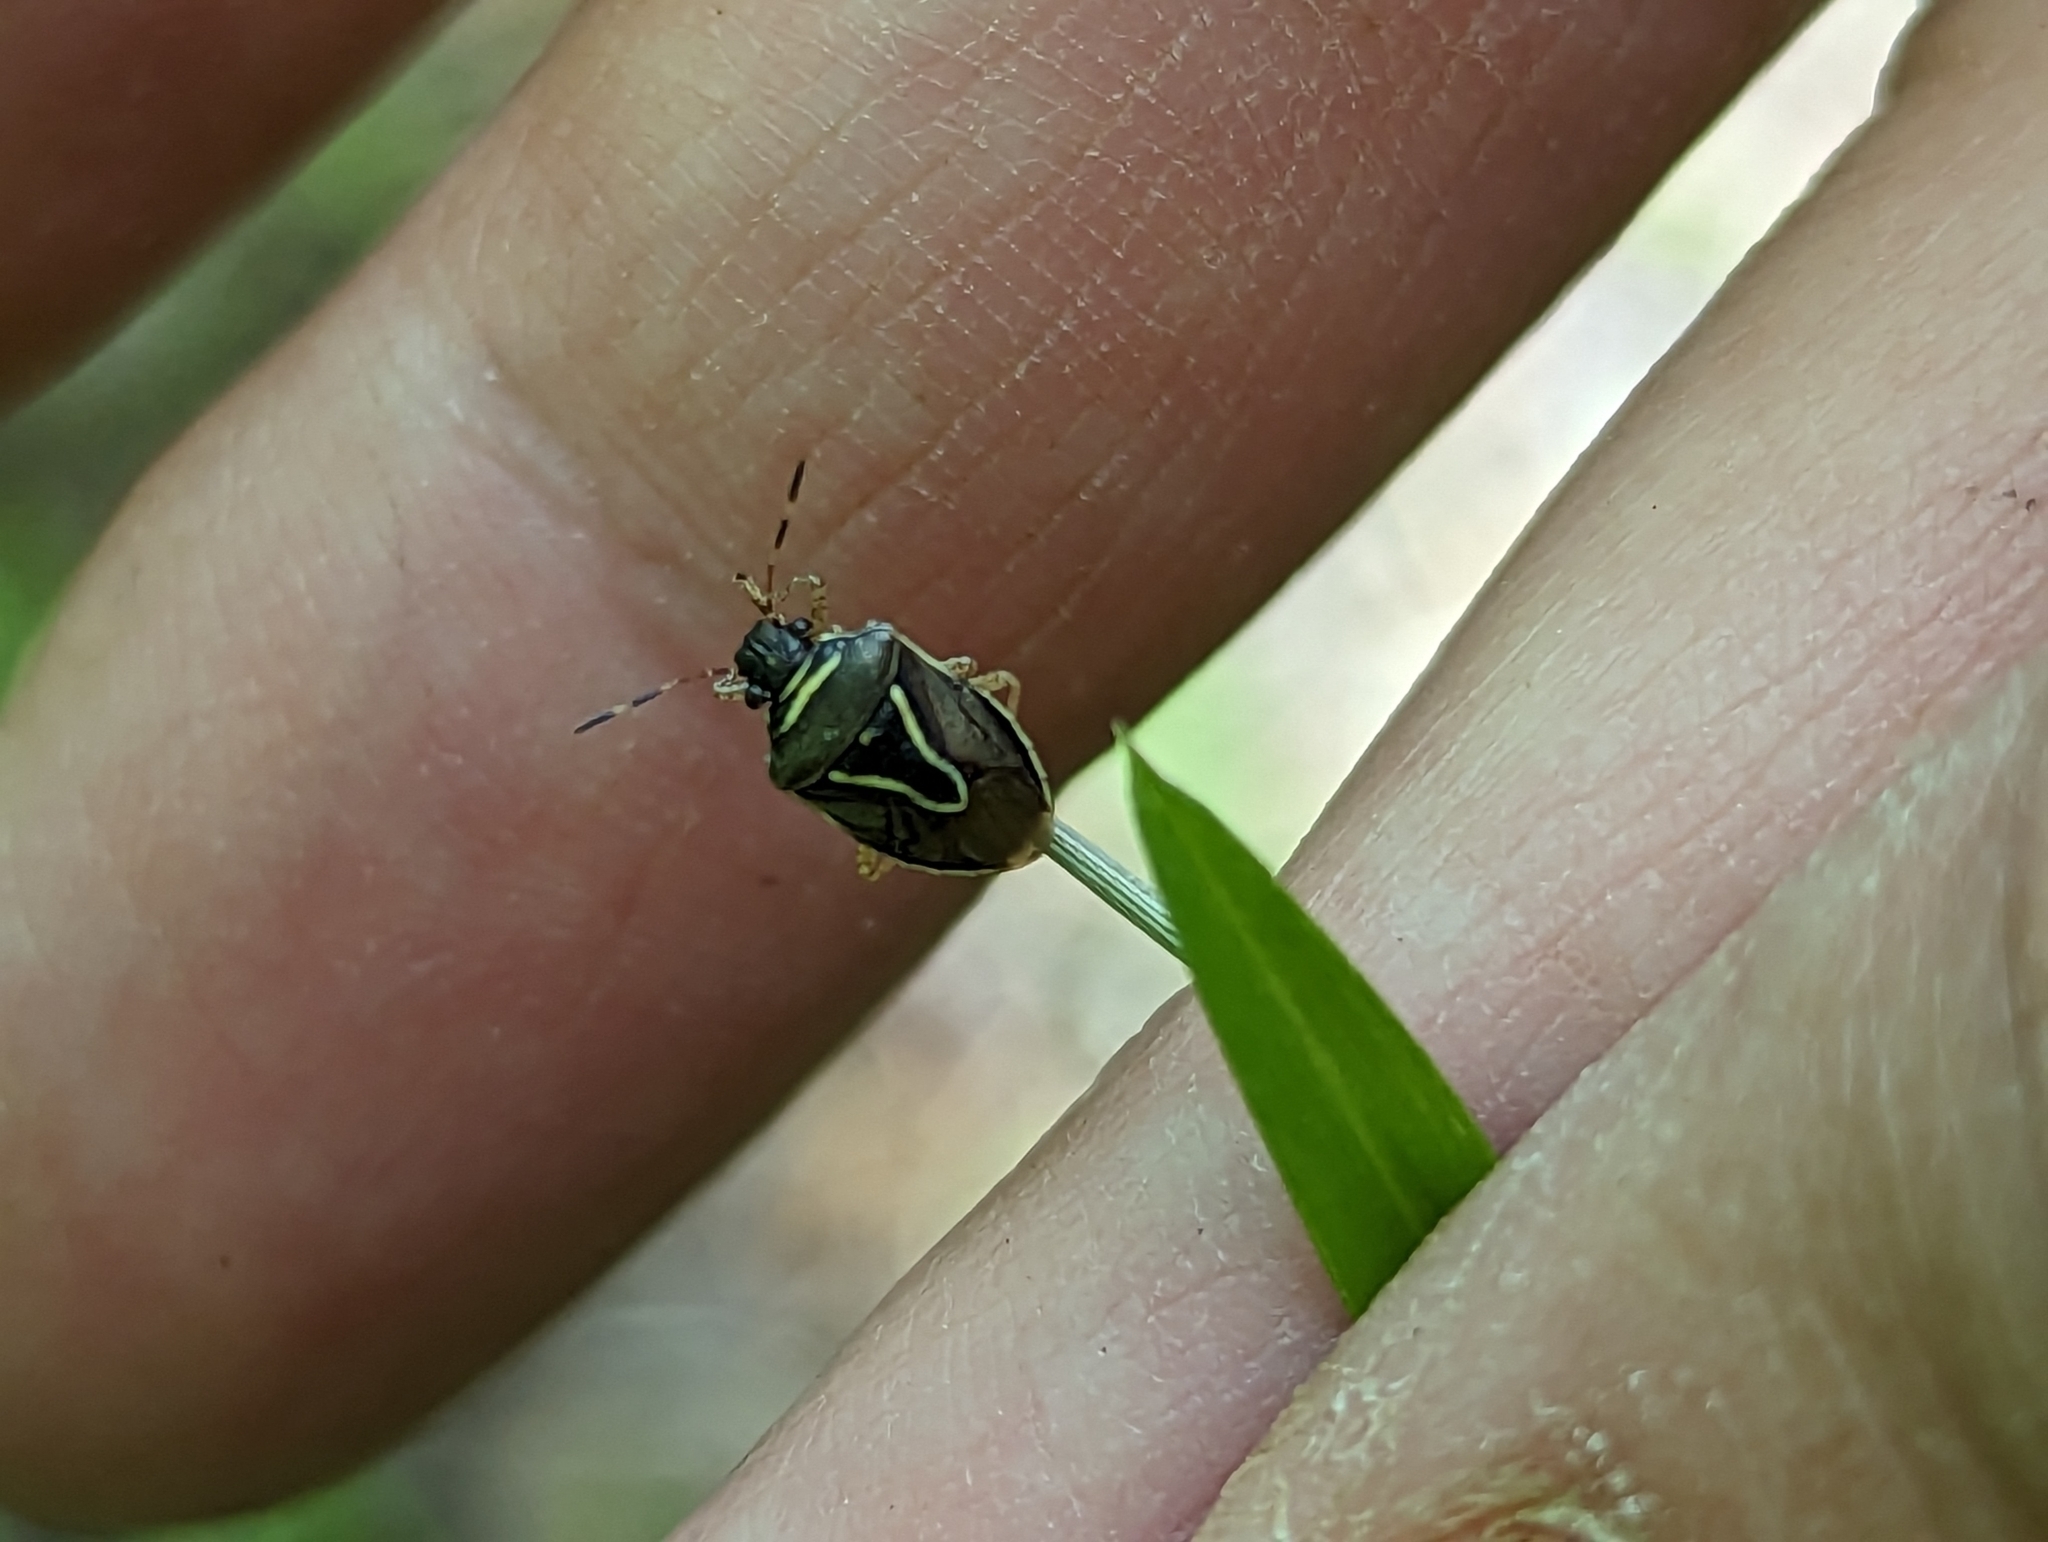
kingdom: Animalia
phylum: Arthropoda
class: Insecta
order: Hemiptera
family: Pentatomidae
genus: Mormidea
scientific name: Mormidea lugens
